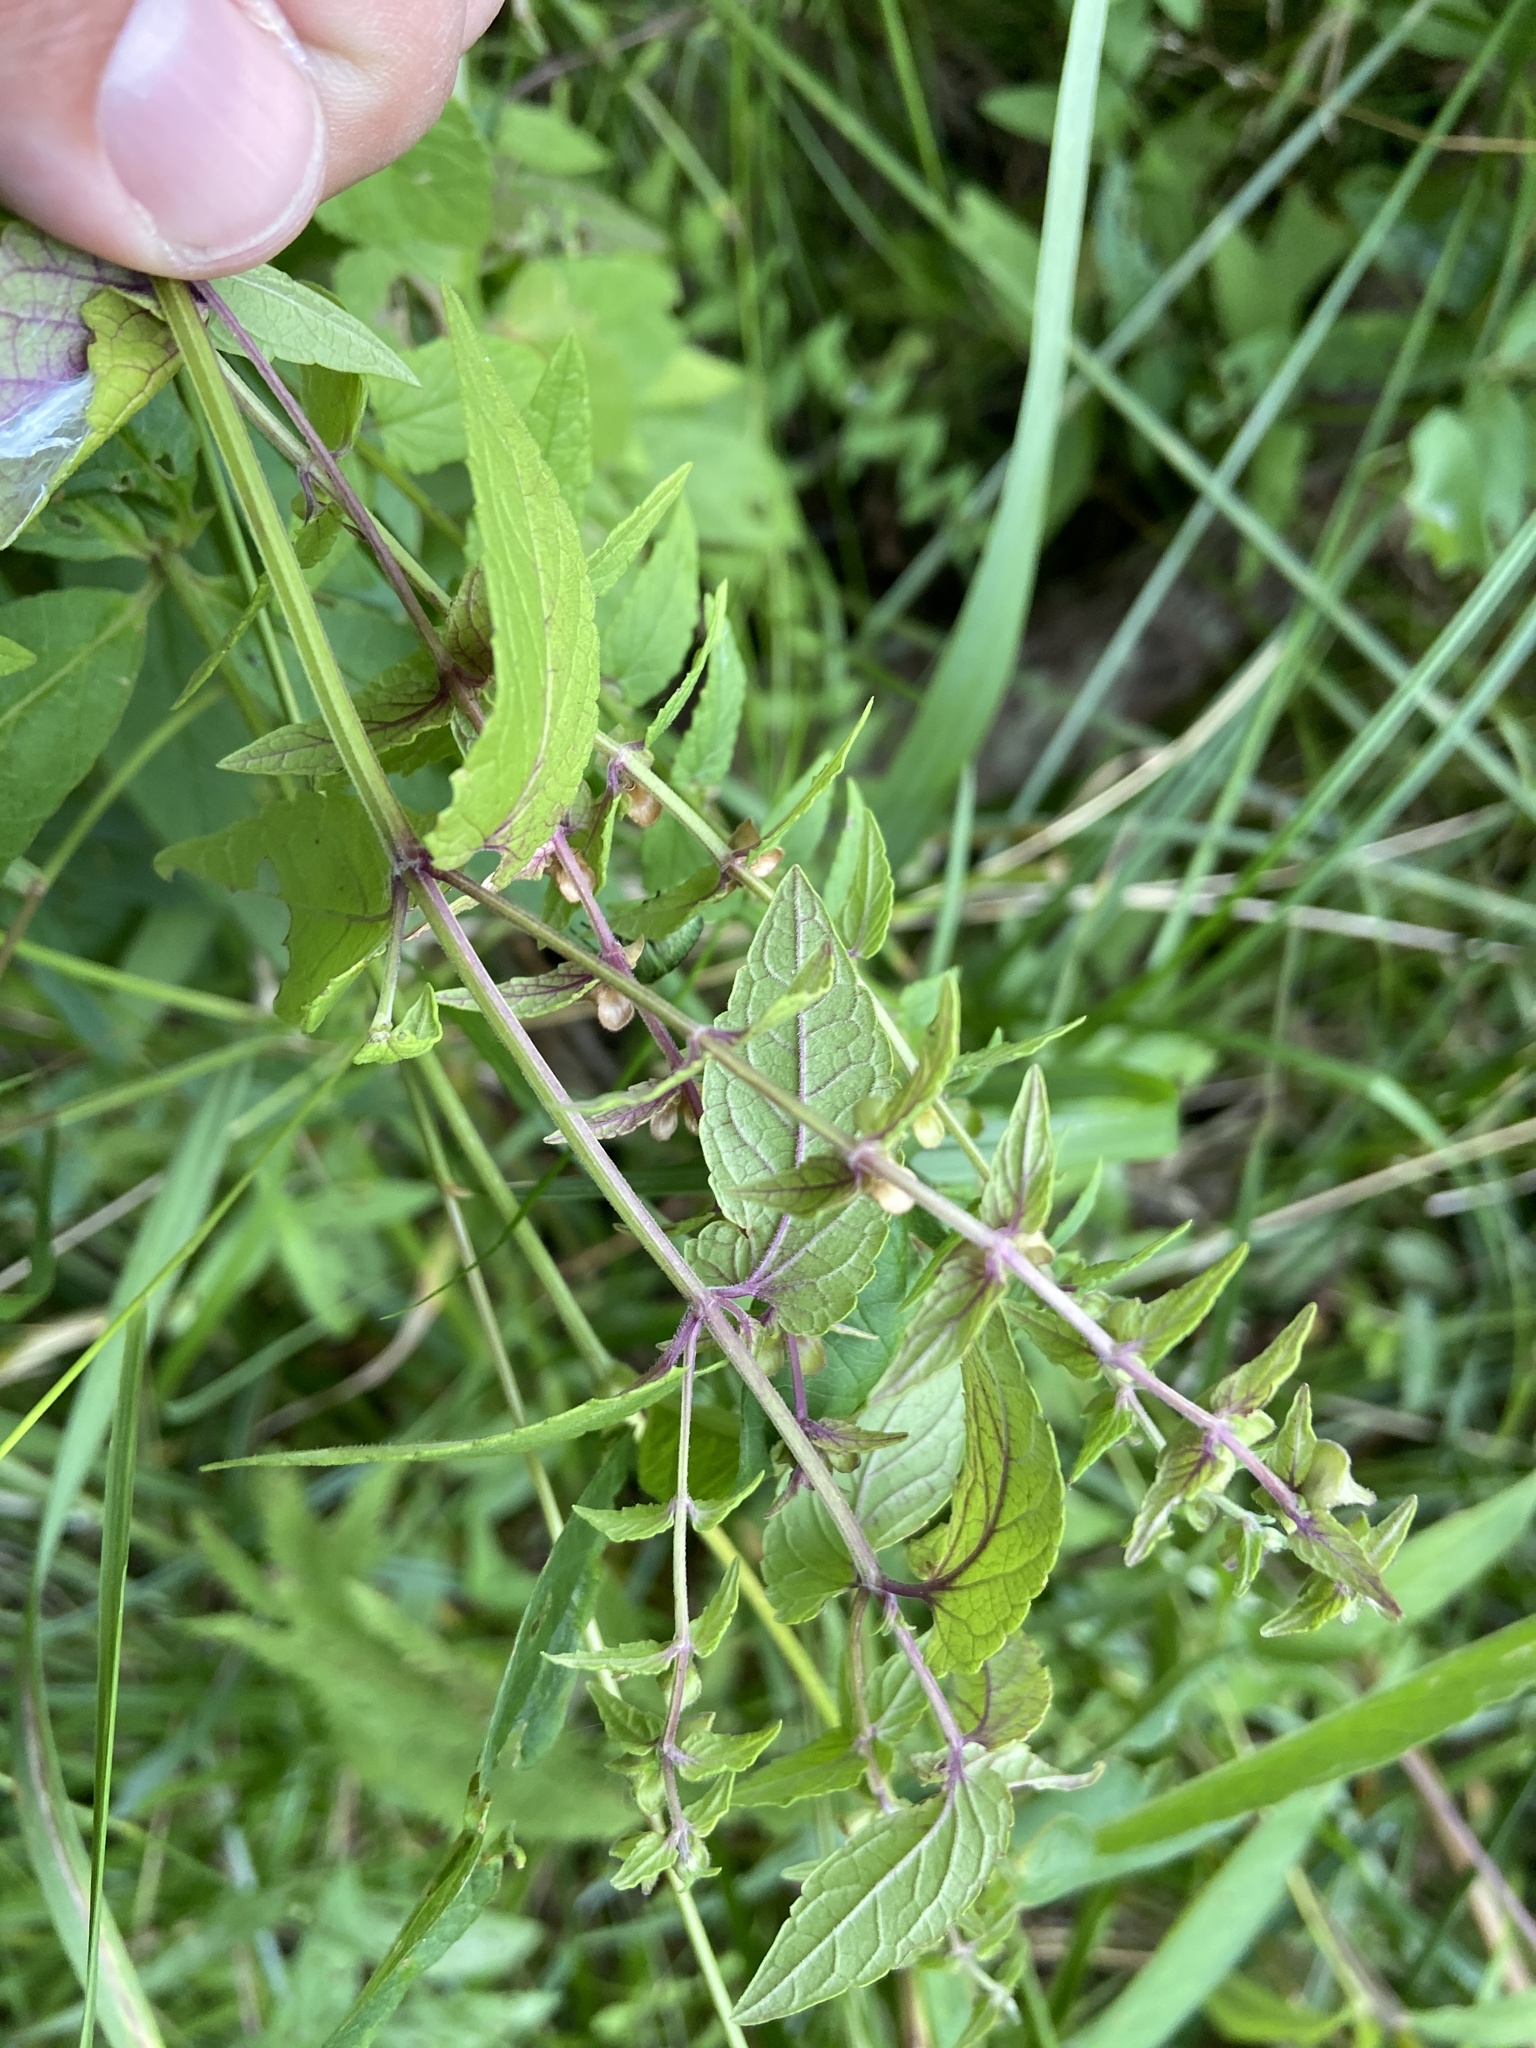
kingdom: Plantae
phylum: Tracheophyta
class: Magnoliopsida
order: Lamiales
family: Lamiaceae
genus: Scutellaria
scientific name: Scutellaria galericulata
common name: Skullcap
